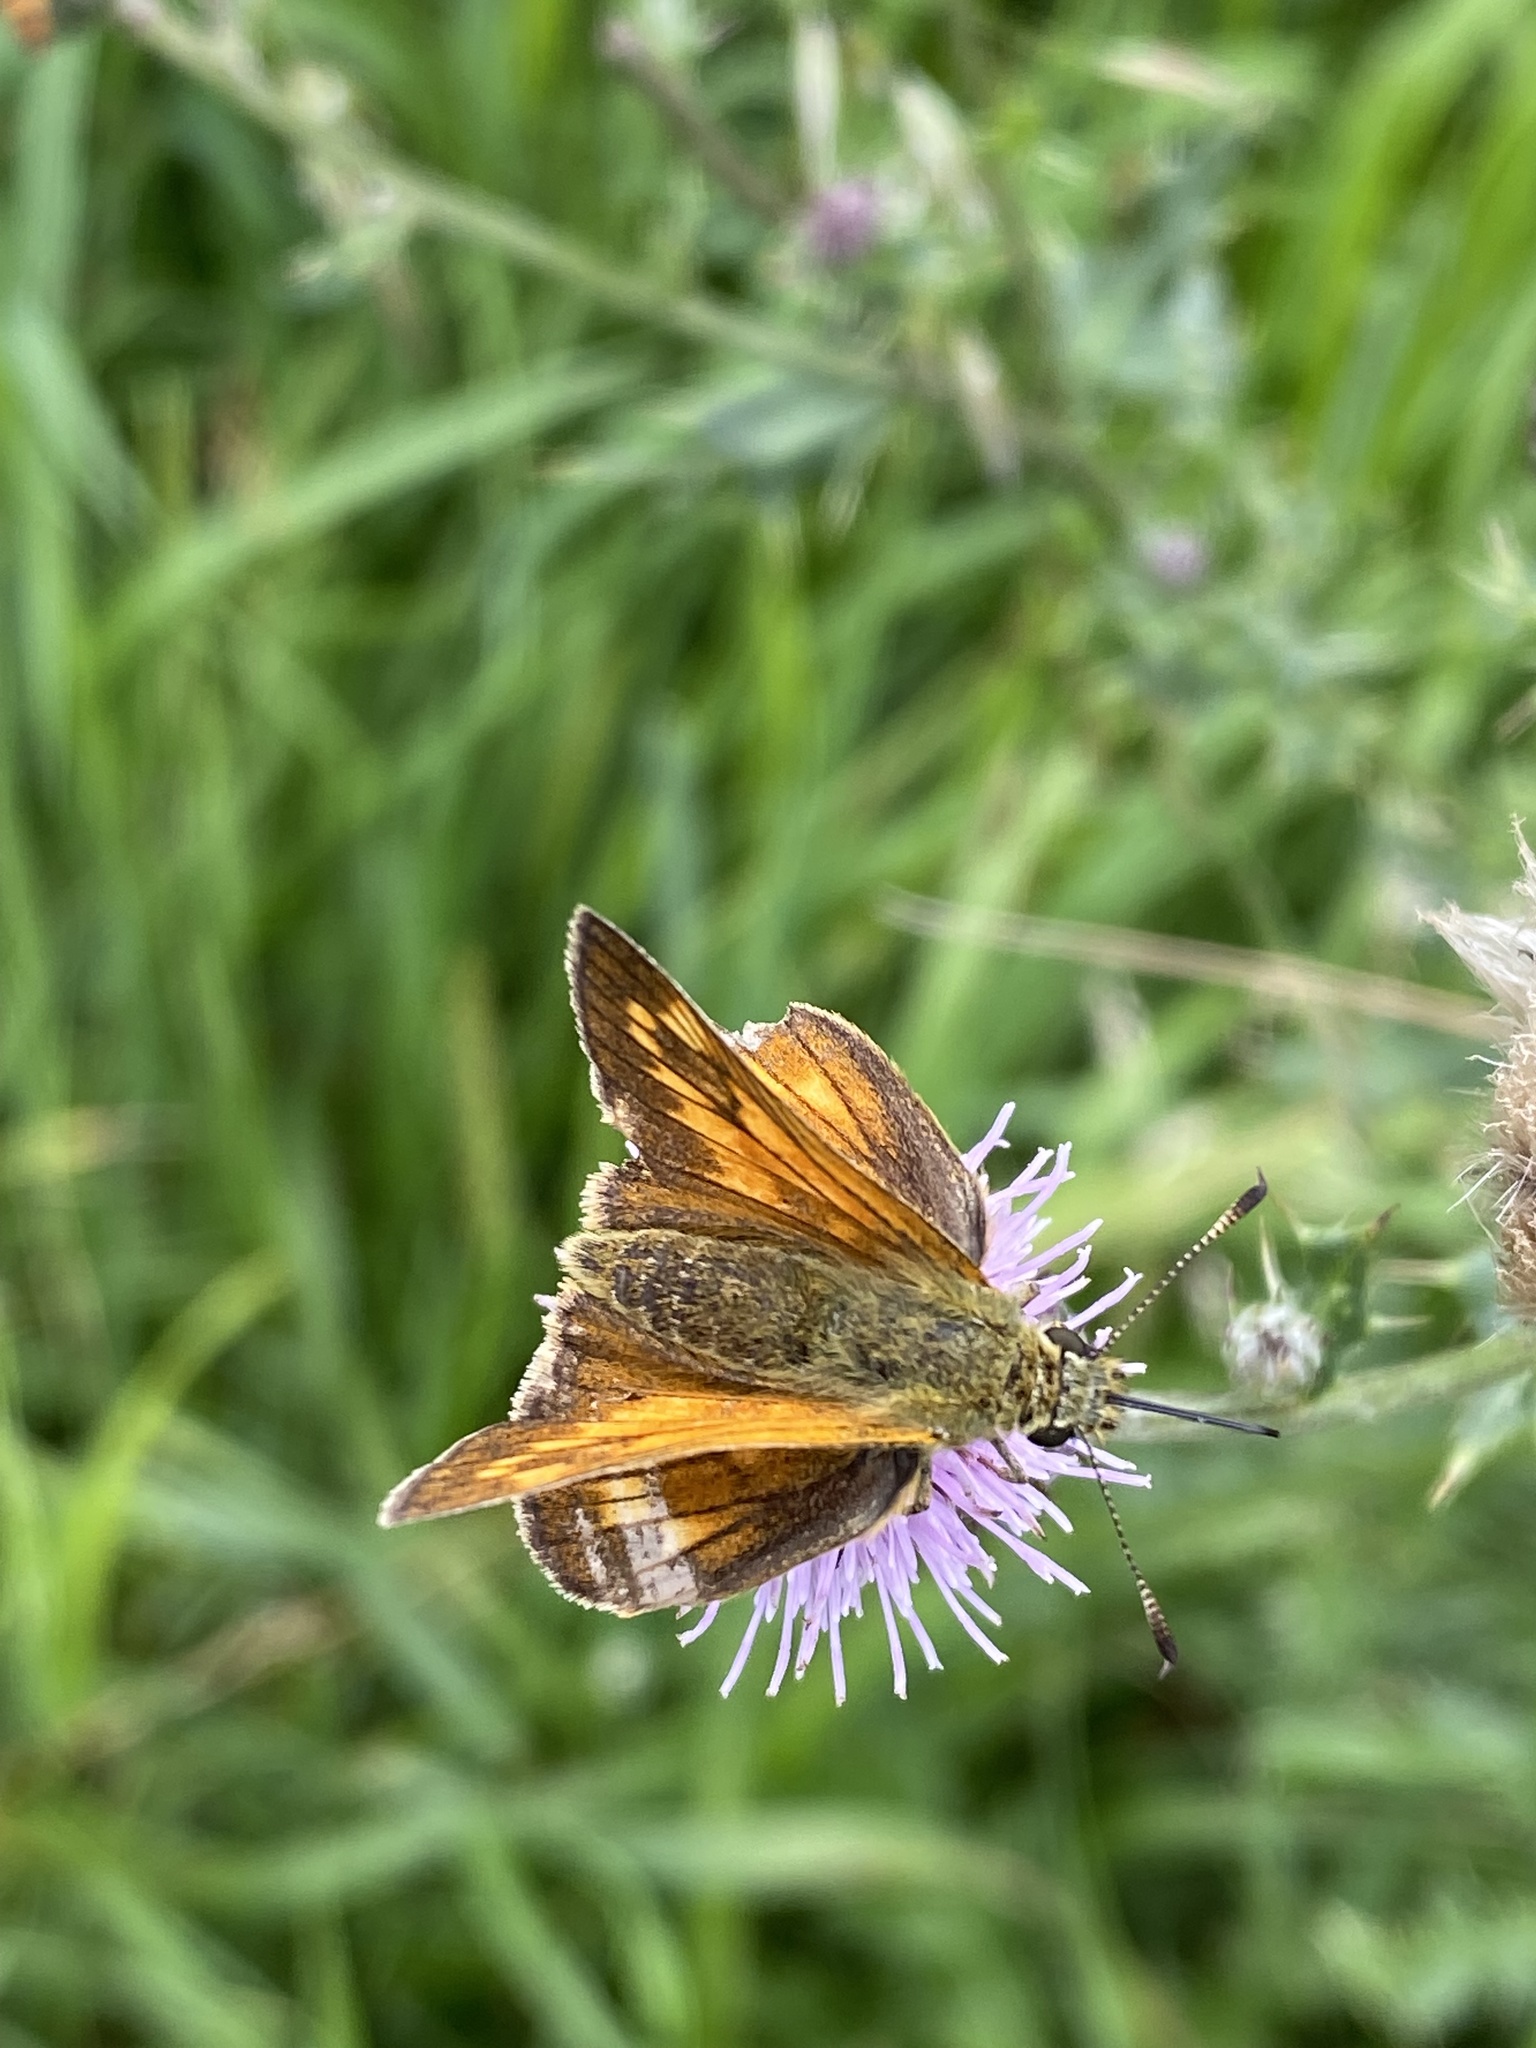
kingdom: Animalia
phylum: Arthropoda
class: Insecta
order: Lepidoptera
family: Hesperiidae
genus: Ochlodes
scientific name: Ochlodes venata
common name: Large skipper
